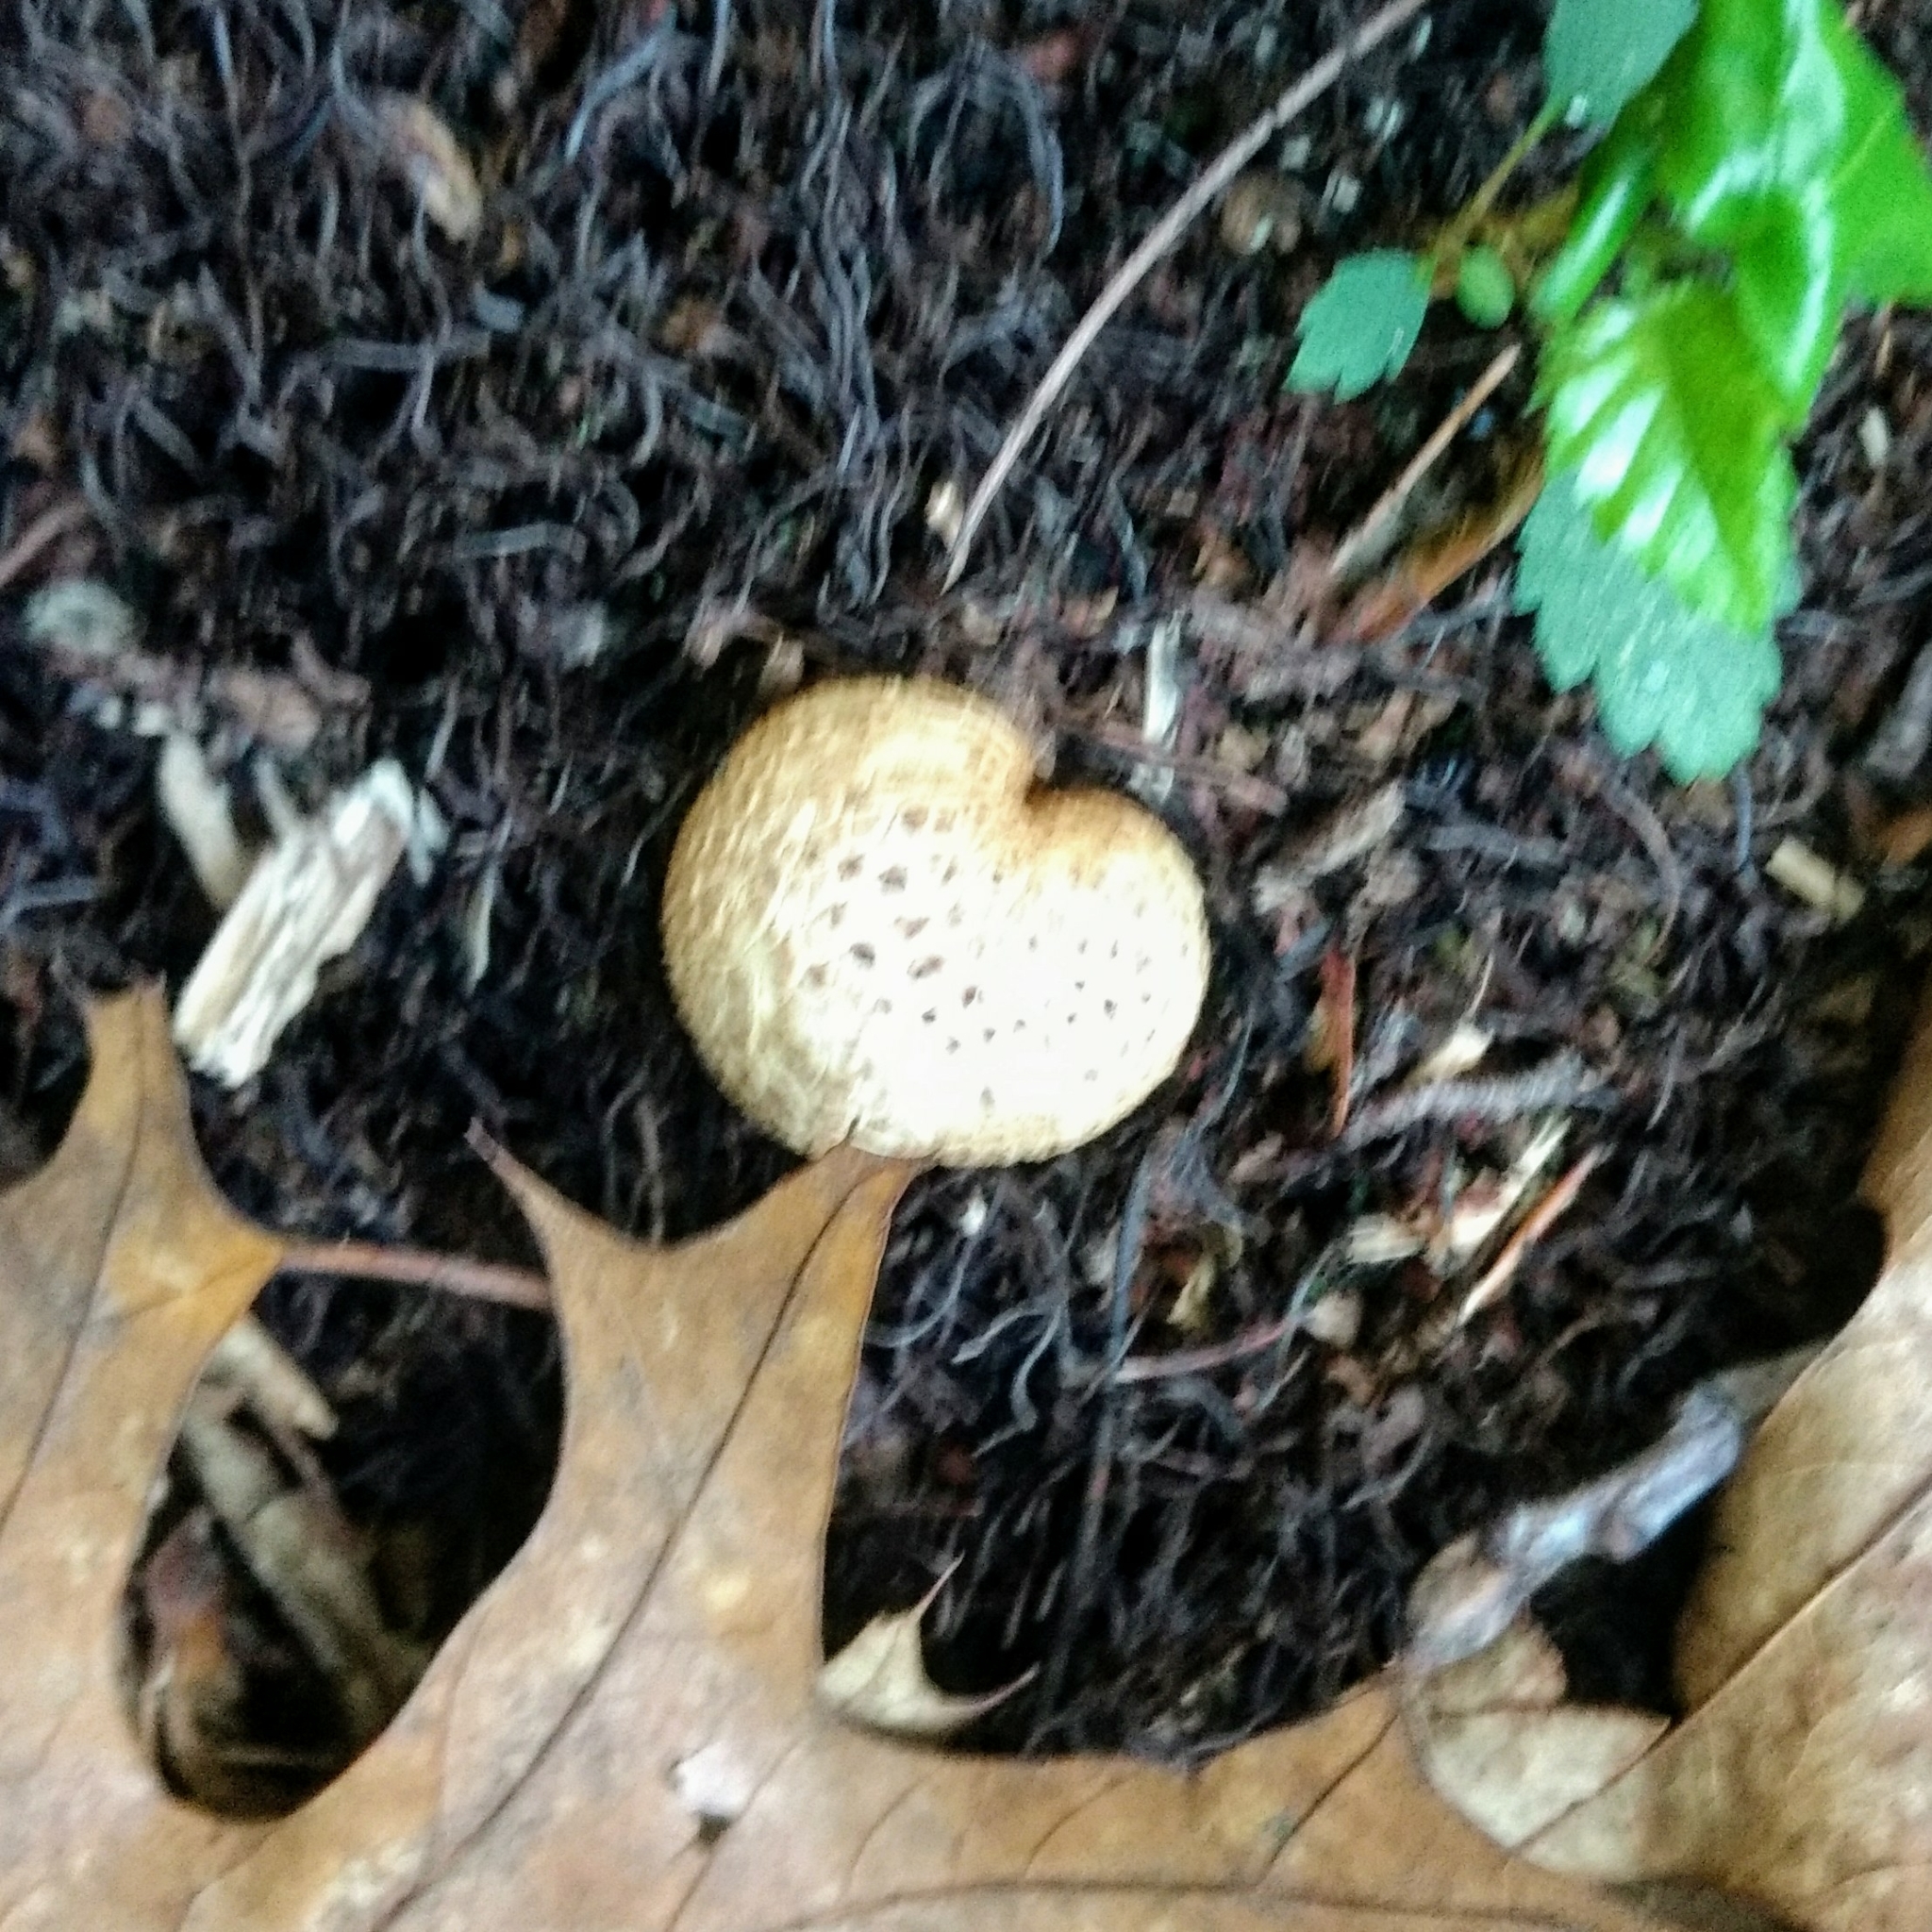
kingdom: Fungi
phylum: Basidiomycota
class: Agaricomycetes
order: Boletales
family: Sclerodermataceae
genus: Scleroderma
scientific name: Scleroderma citrinum
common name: Common earthball
